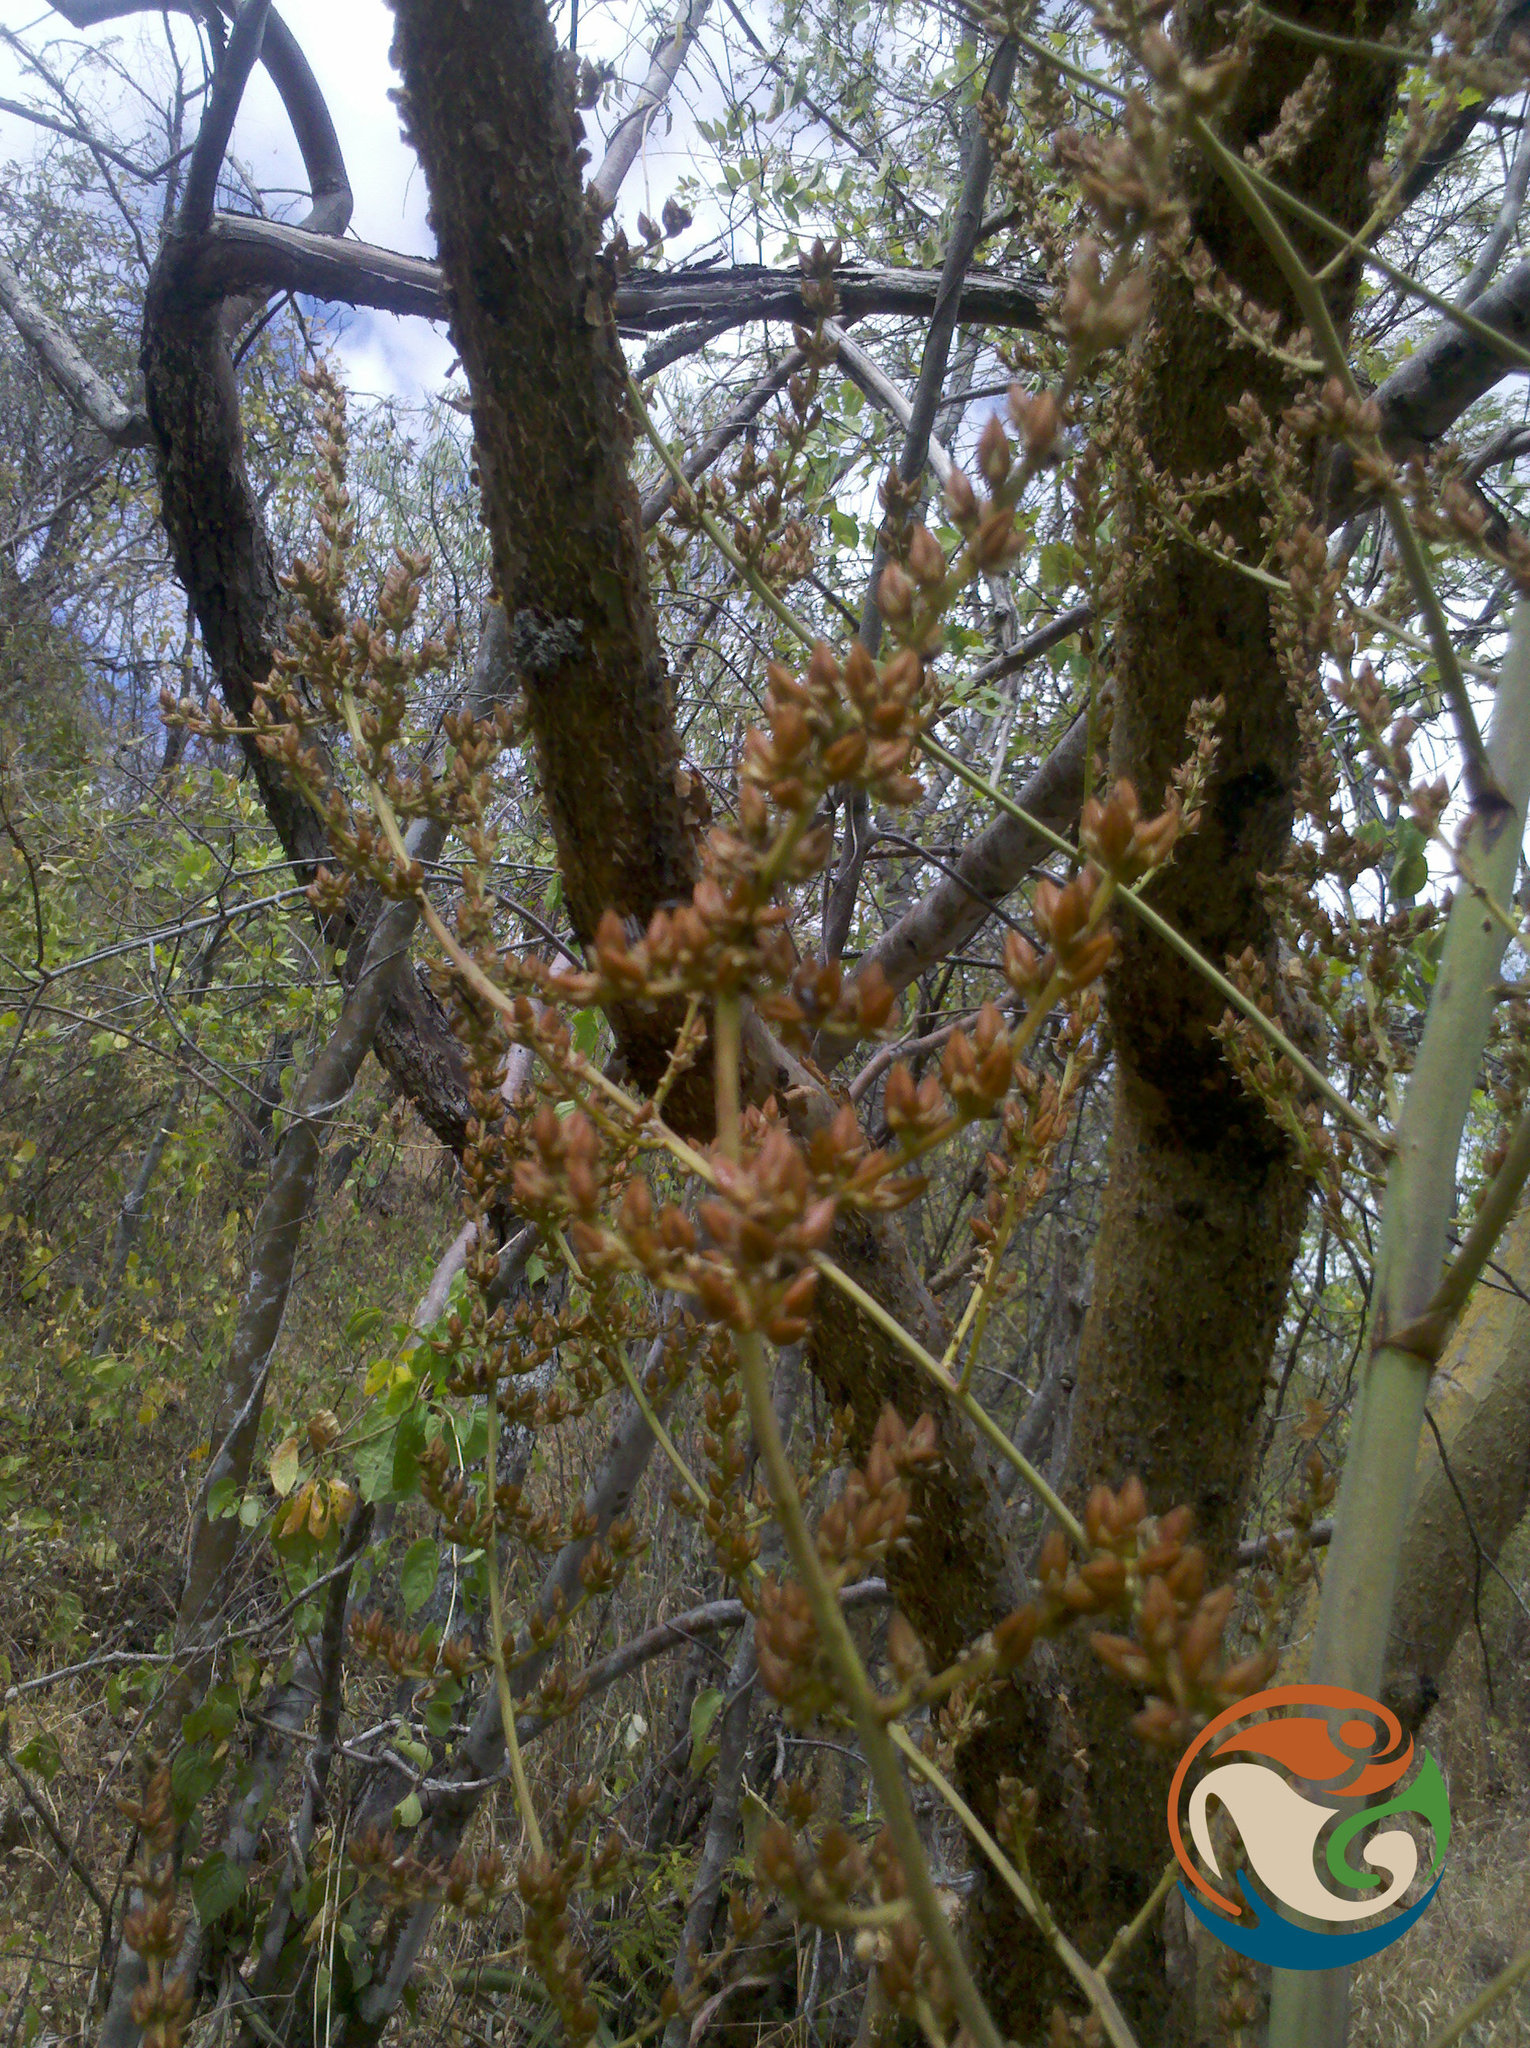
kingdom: Plantae
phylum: Tracheophyta
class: Liliopsida
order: Poales
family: Bromeliaceae
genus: Hechtia
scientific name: Hechtia sphaeroblasta
